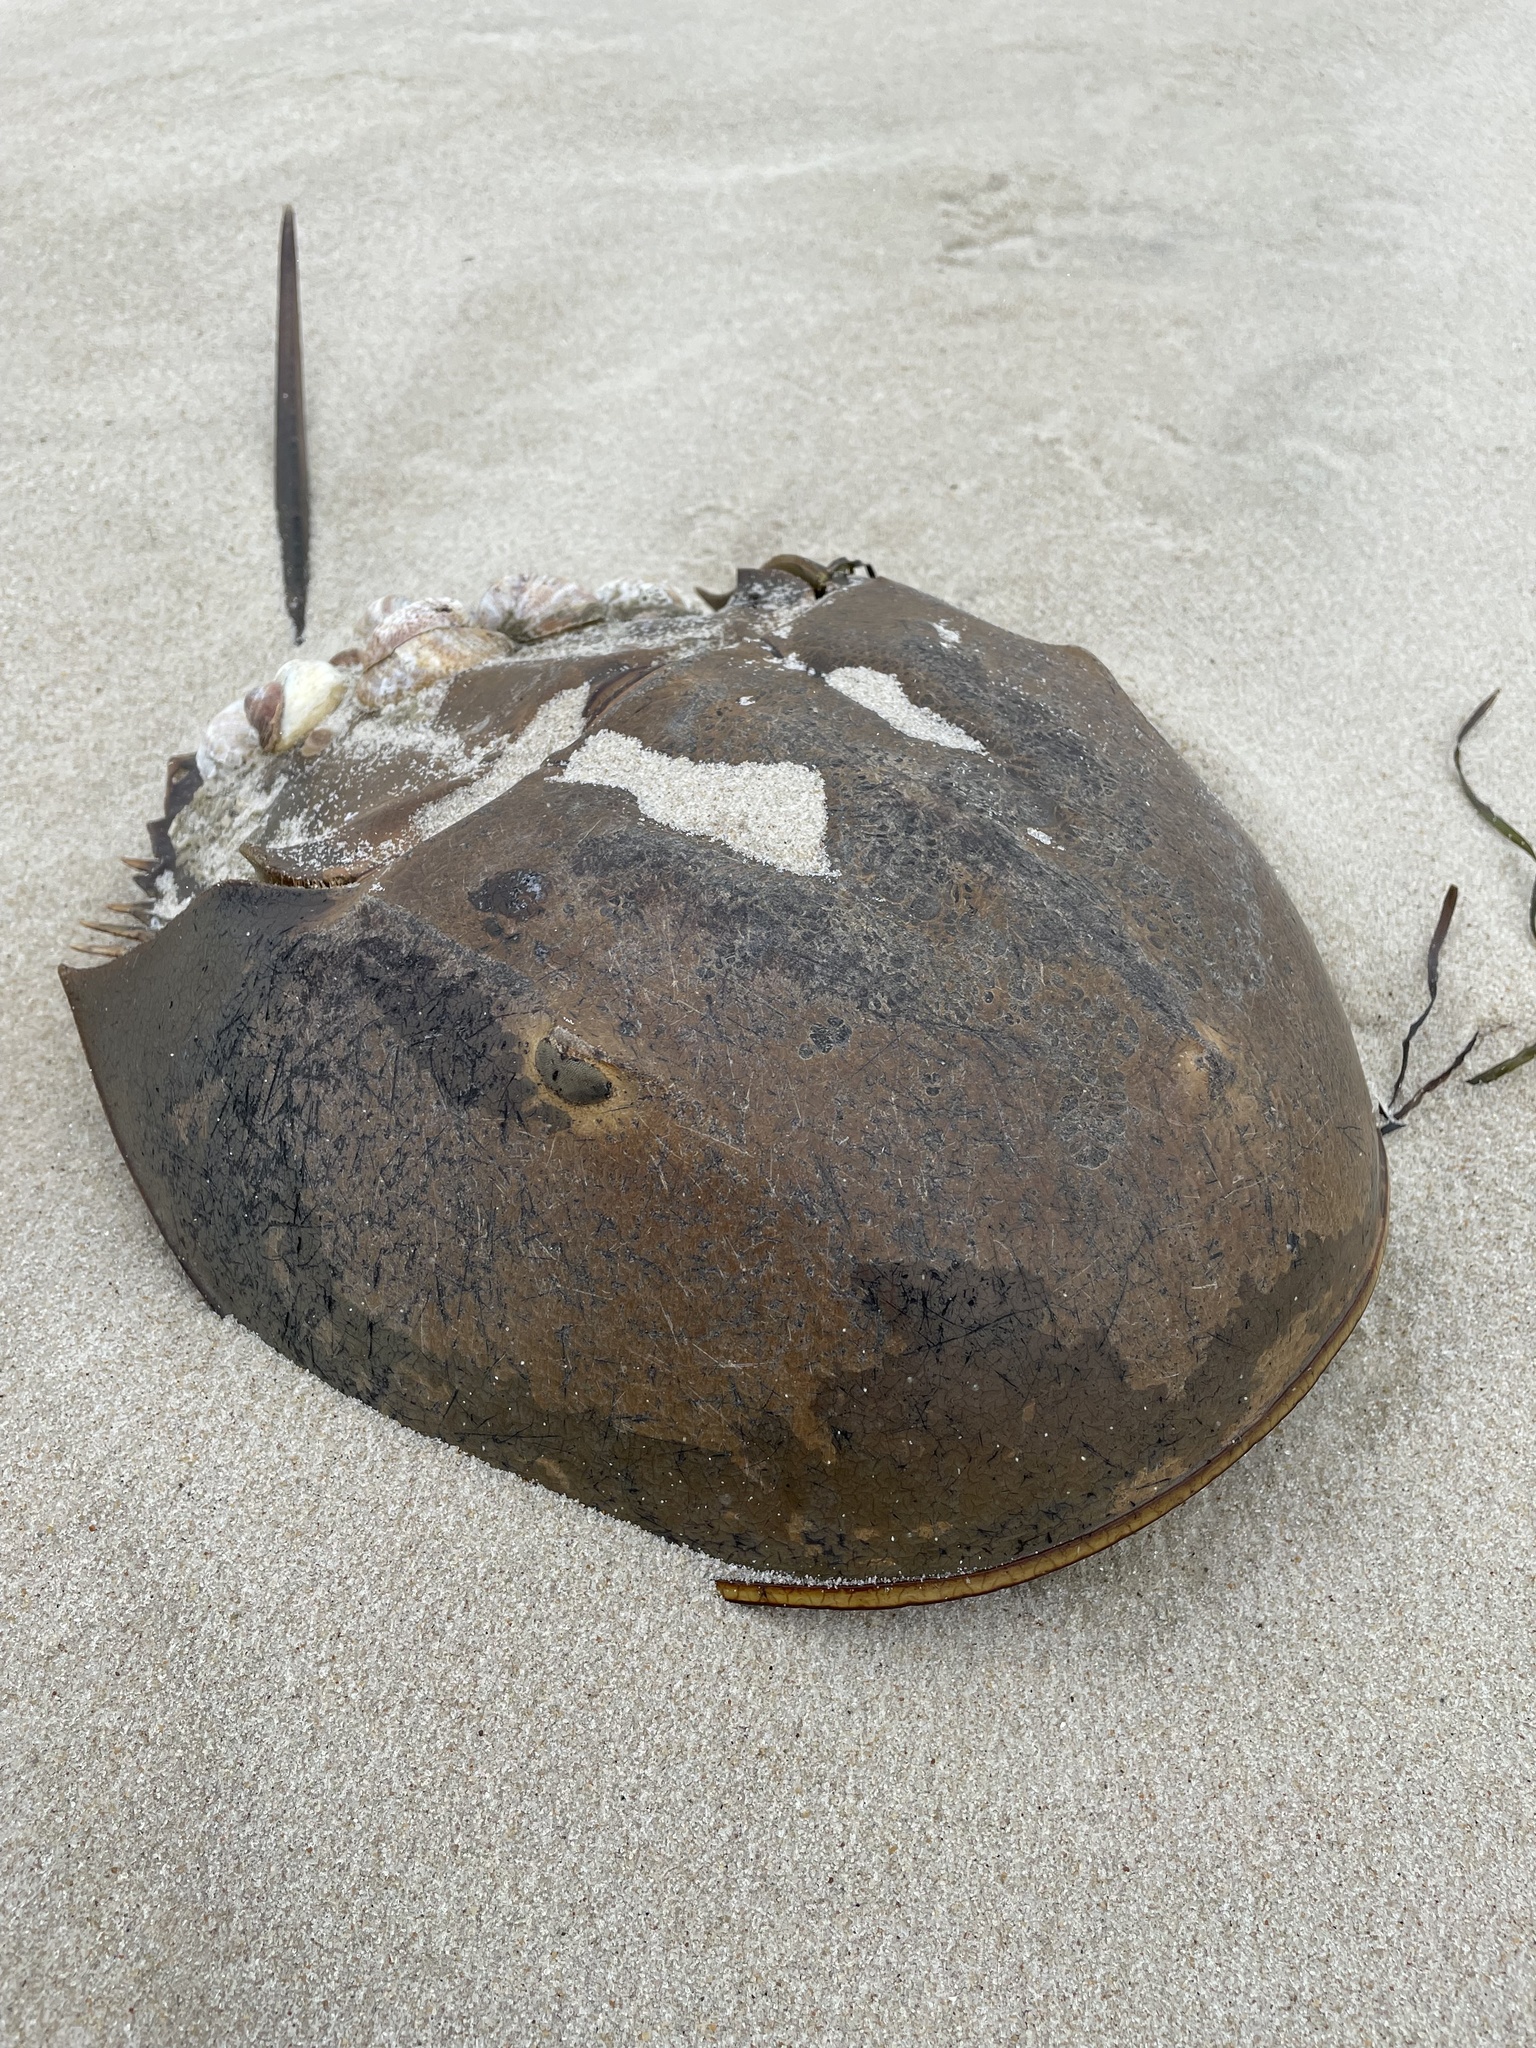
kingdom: Animalia
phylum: Arthropoda
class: Merostomata
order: Xiphosurida
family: Limulidae
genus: Limulus
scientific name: Limulus polyphemus
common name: Horseshoe crab
